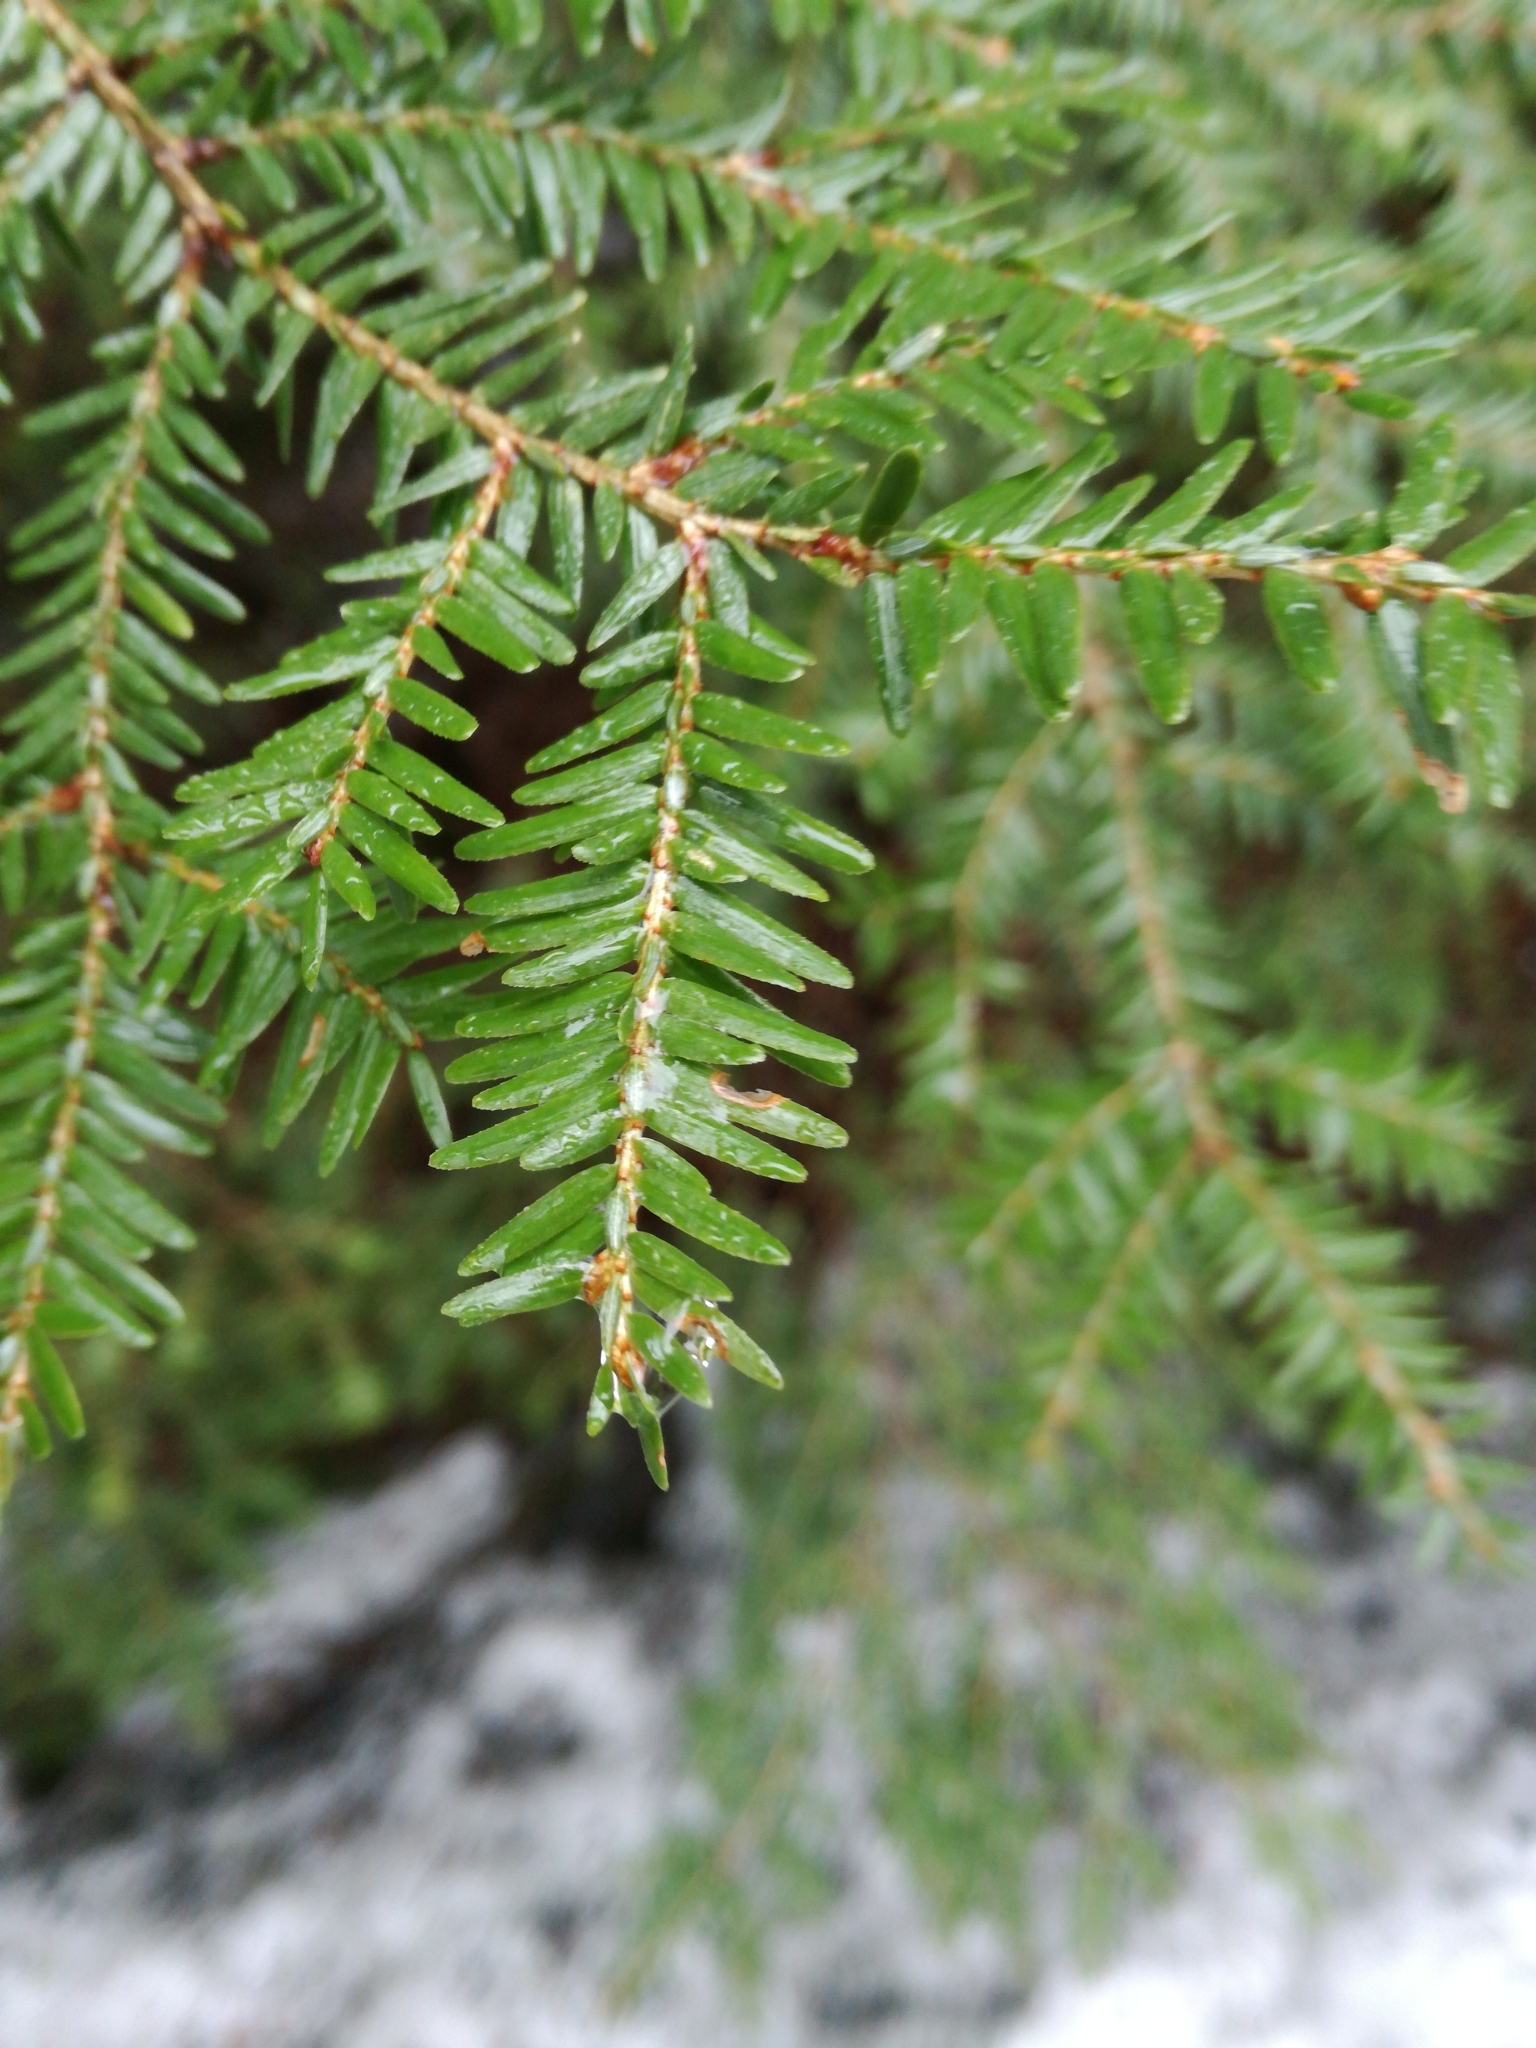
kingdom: Plantae
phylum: Tracheophyta
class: Pinopsida
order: Pinales
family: Pinaceae
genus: Tsuga
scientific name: Tsuga canadensis
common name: Eastern hemlock
